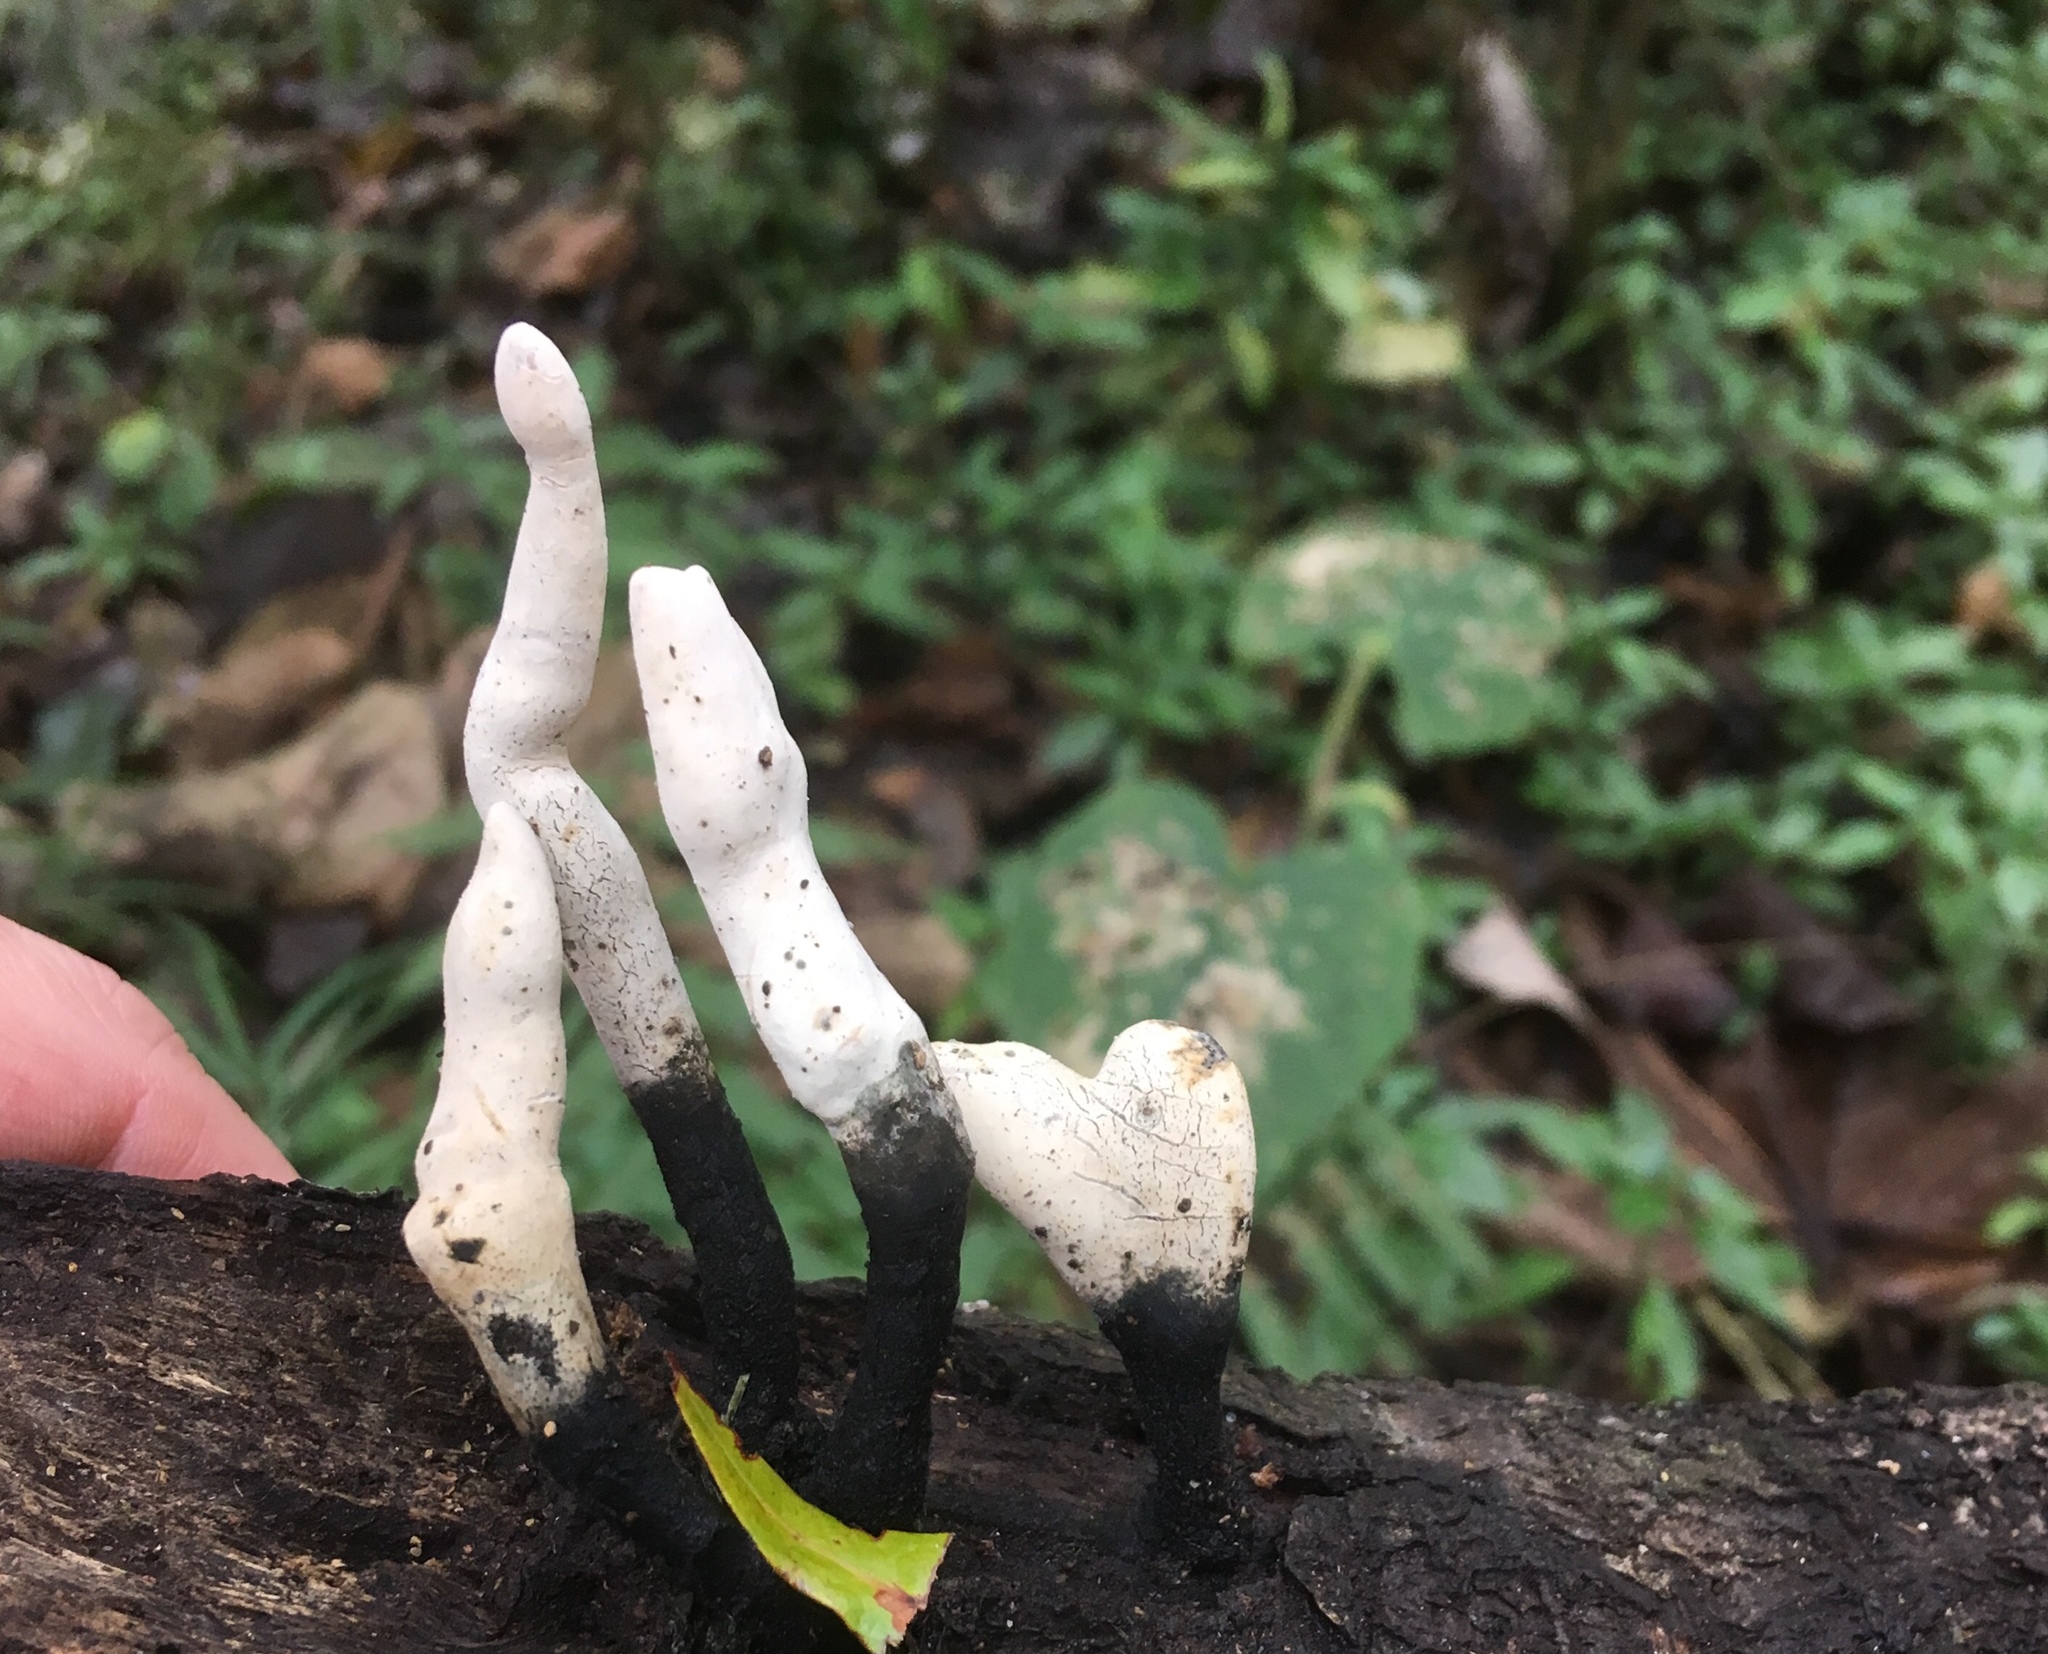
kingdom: Fungi
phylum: Ascomycota
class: Sordariomycetes
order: Xylariales
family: Xylariaceae
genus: Xylaria
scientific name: Xylaria hypoxylon
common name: Candle-snuff fungus
